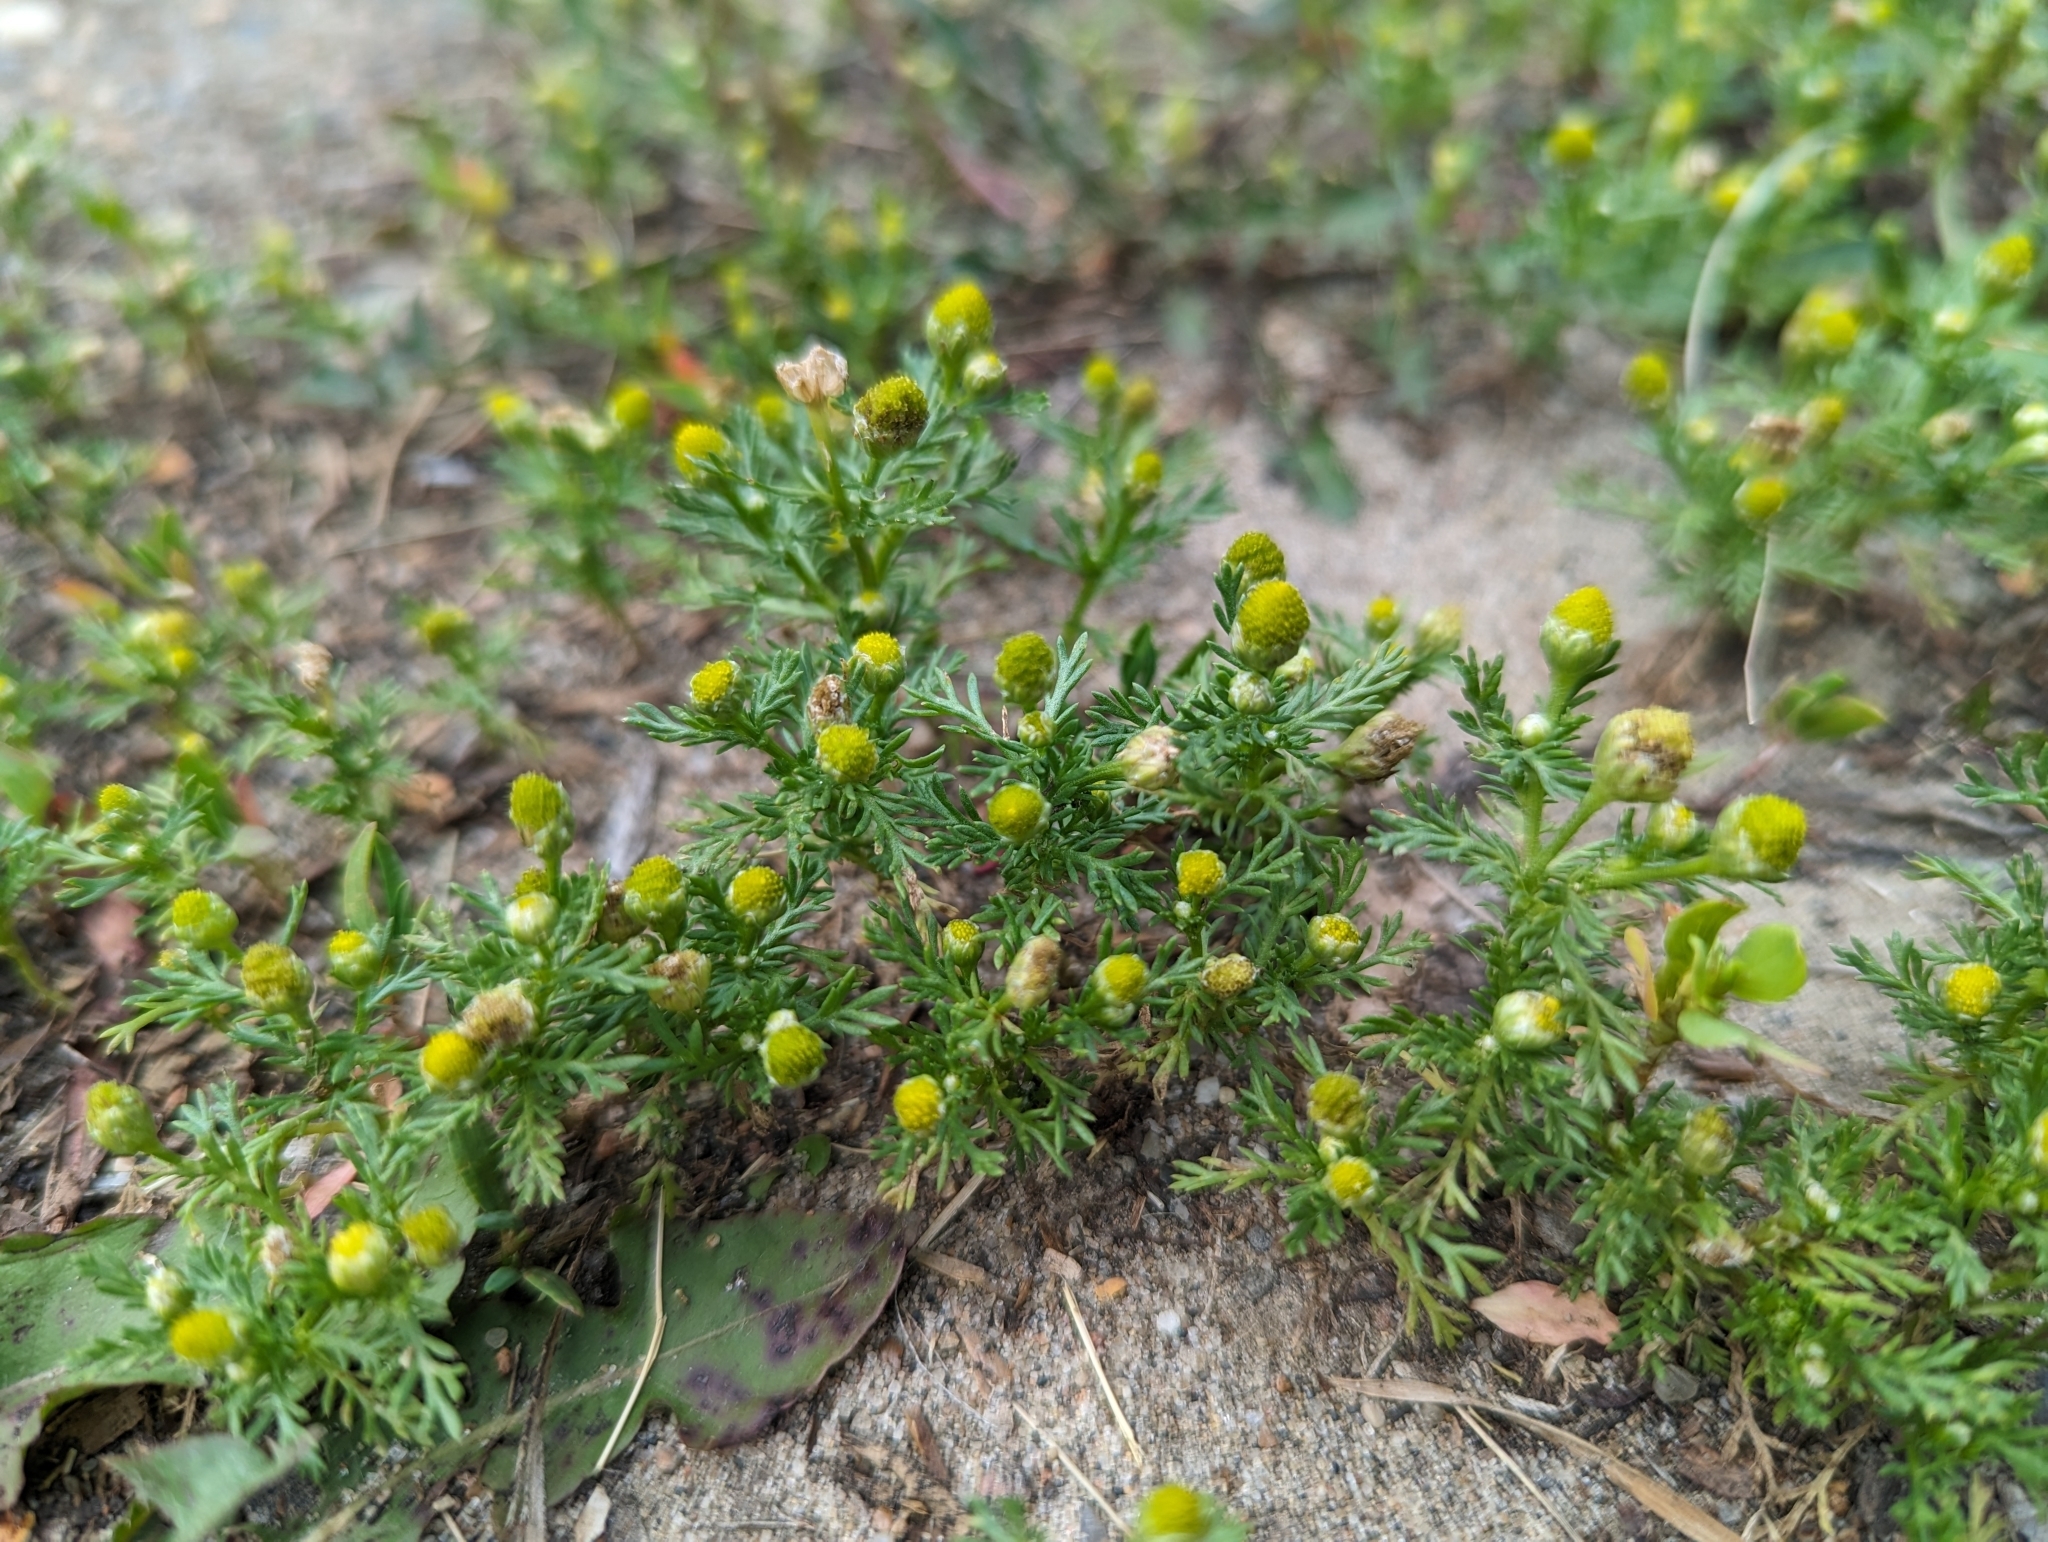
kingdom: Plantae
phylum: Tracheophyta
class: Magnoliopsida
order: Asterales
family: Asteraceae
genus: Matricaria
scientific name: Matricaria discoidea
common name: Disc mayweed
